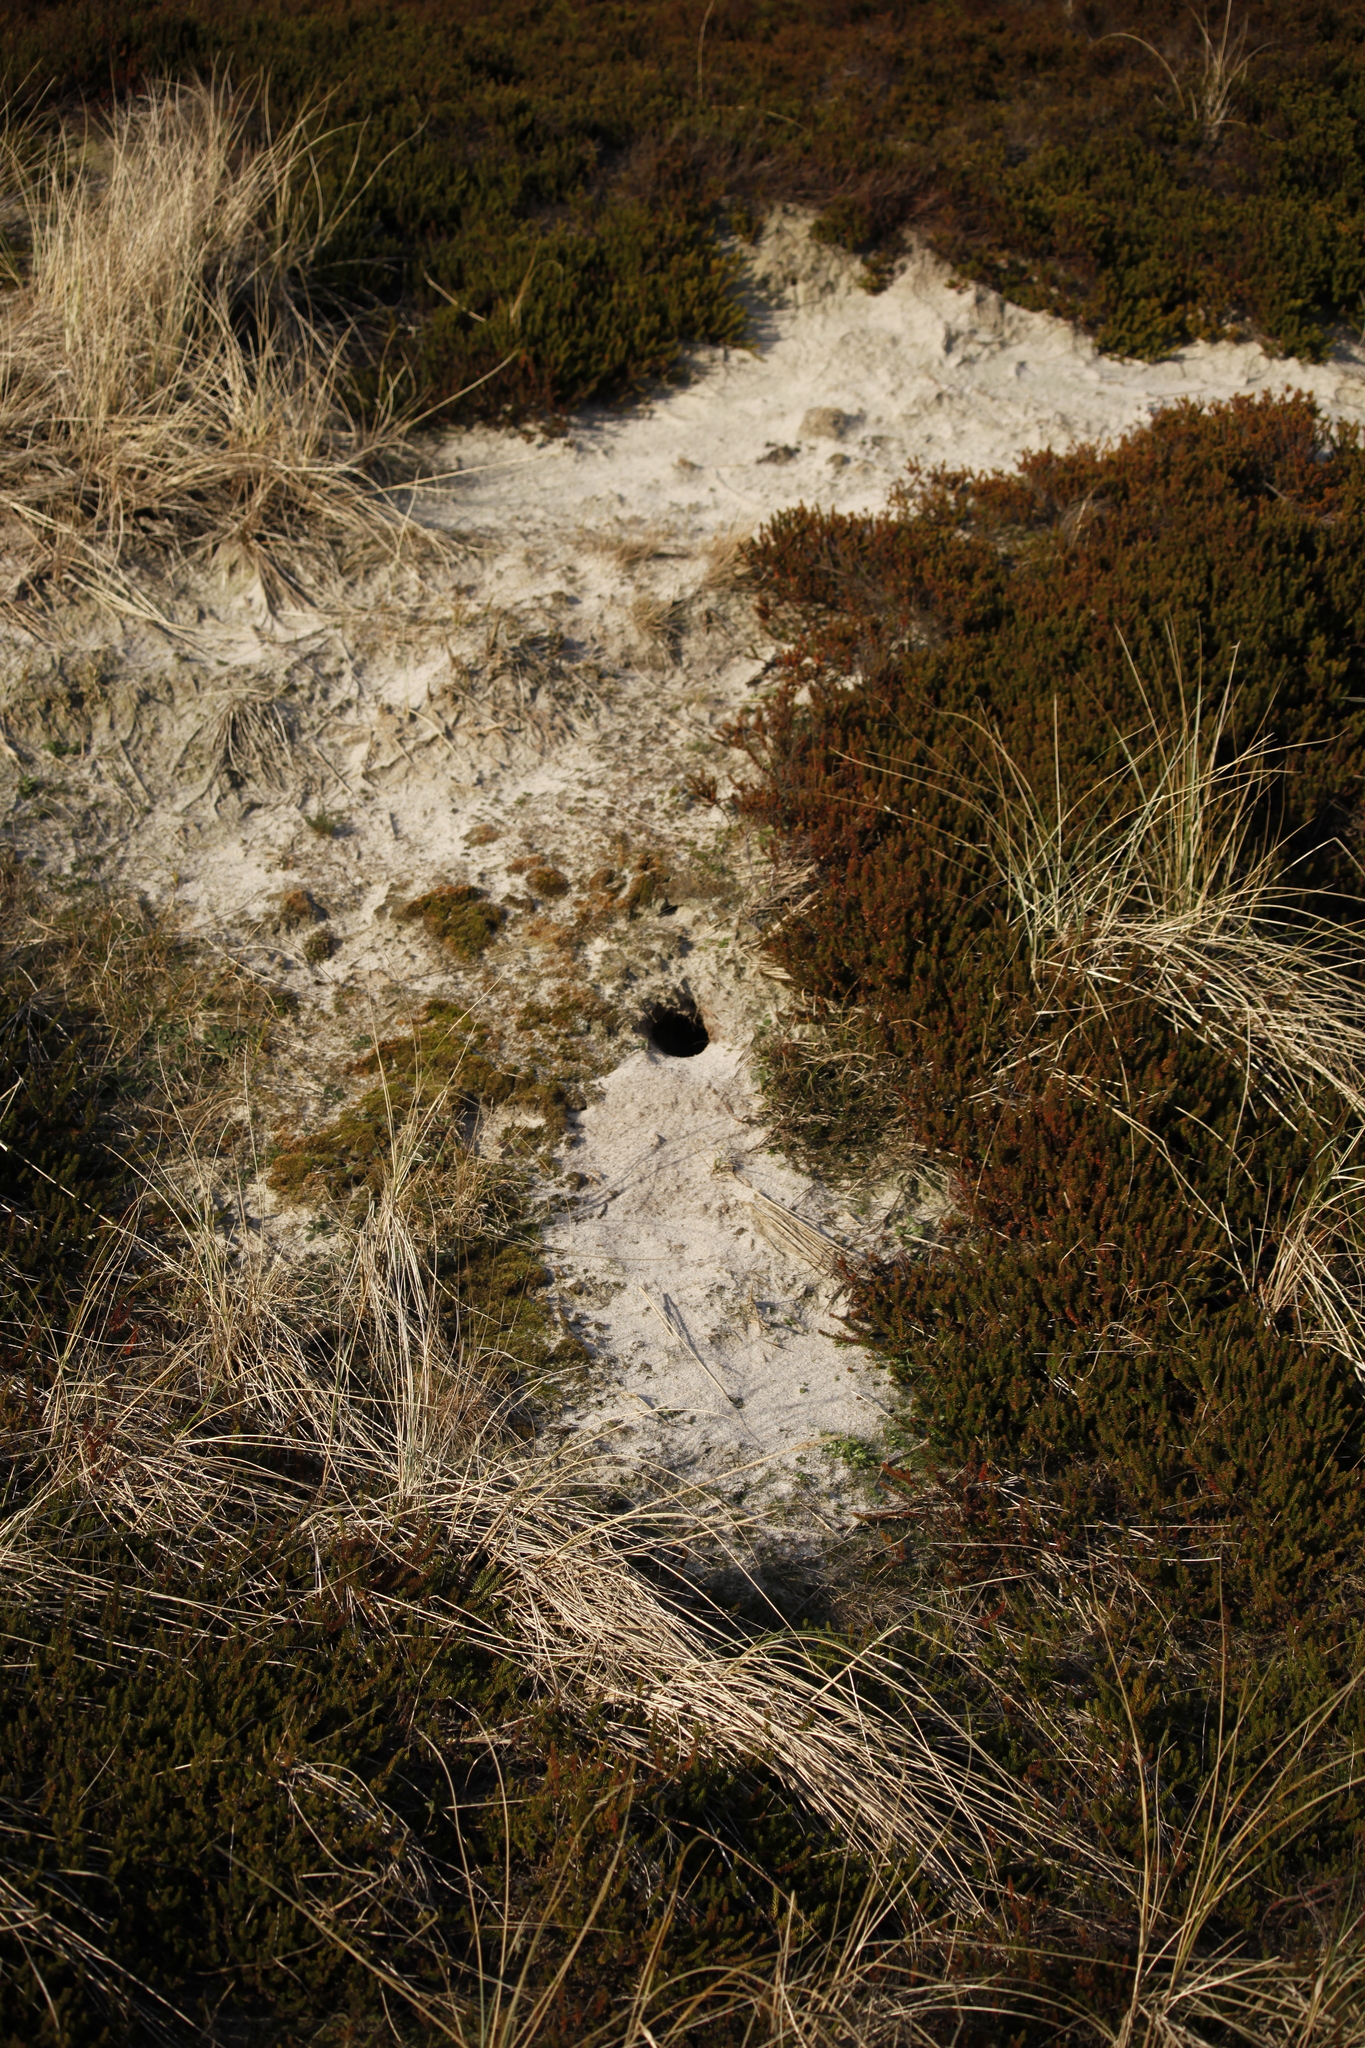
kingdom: Animalia
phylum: Chordata
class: Mammalia
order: Lagomorpha
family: Leporidae
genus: Oryctolagus
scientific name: Oryctolagus cuniculus
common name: European rabbit
